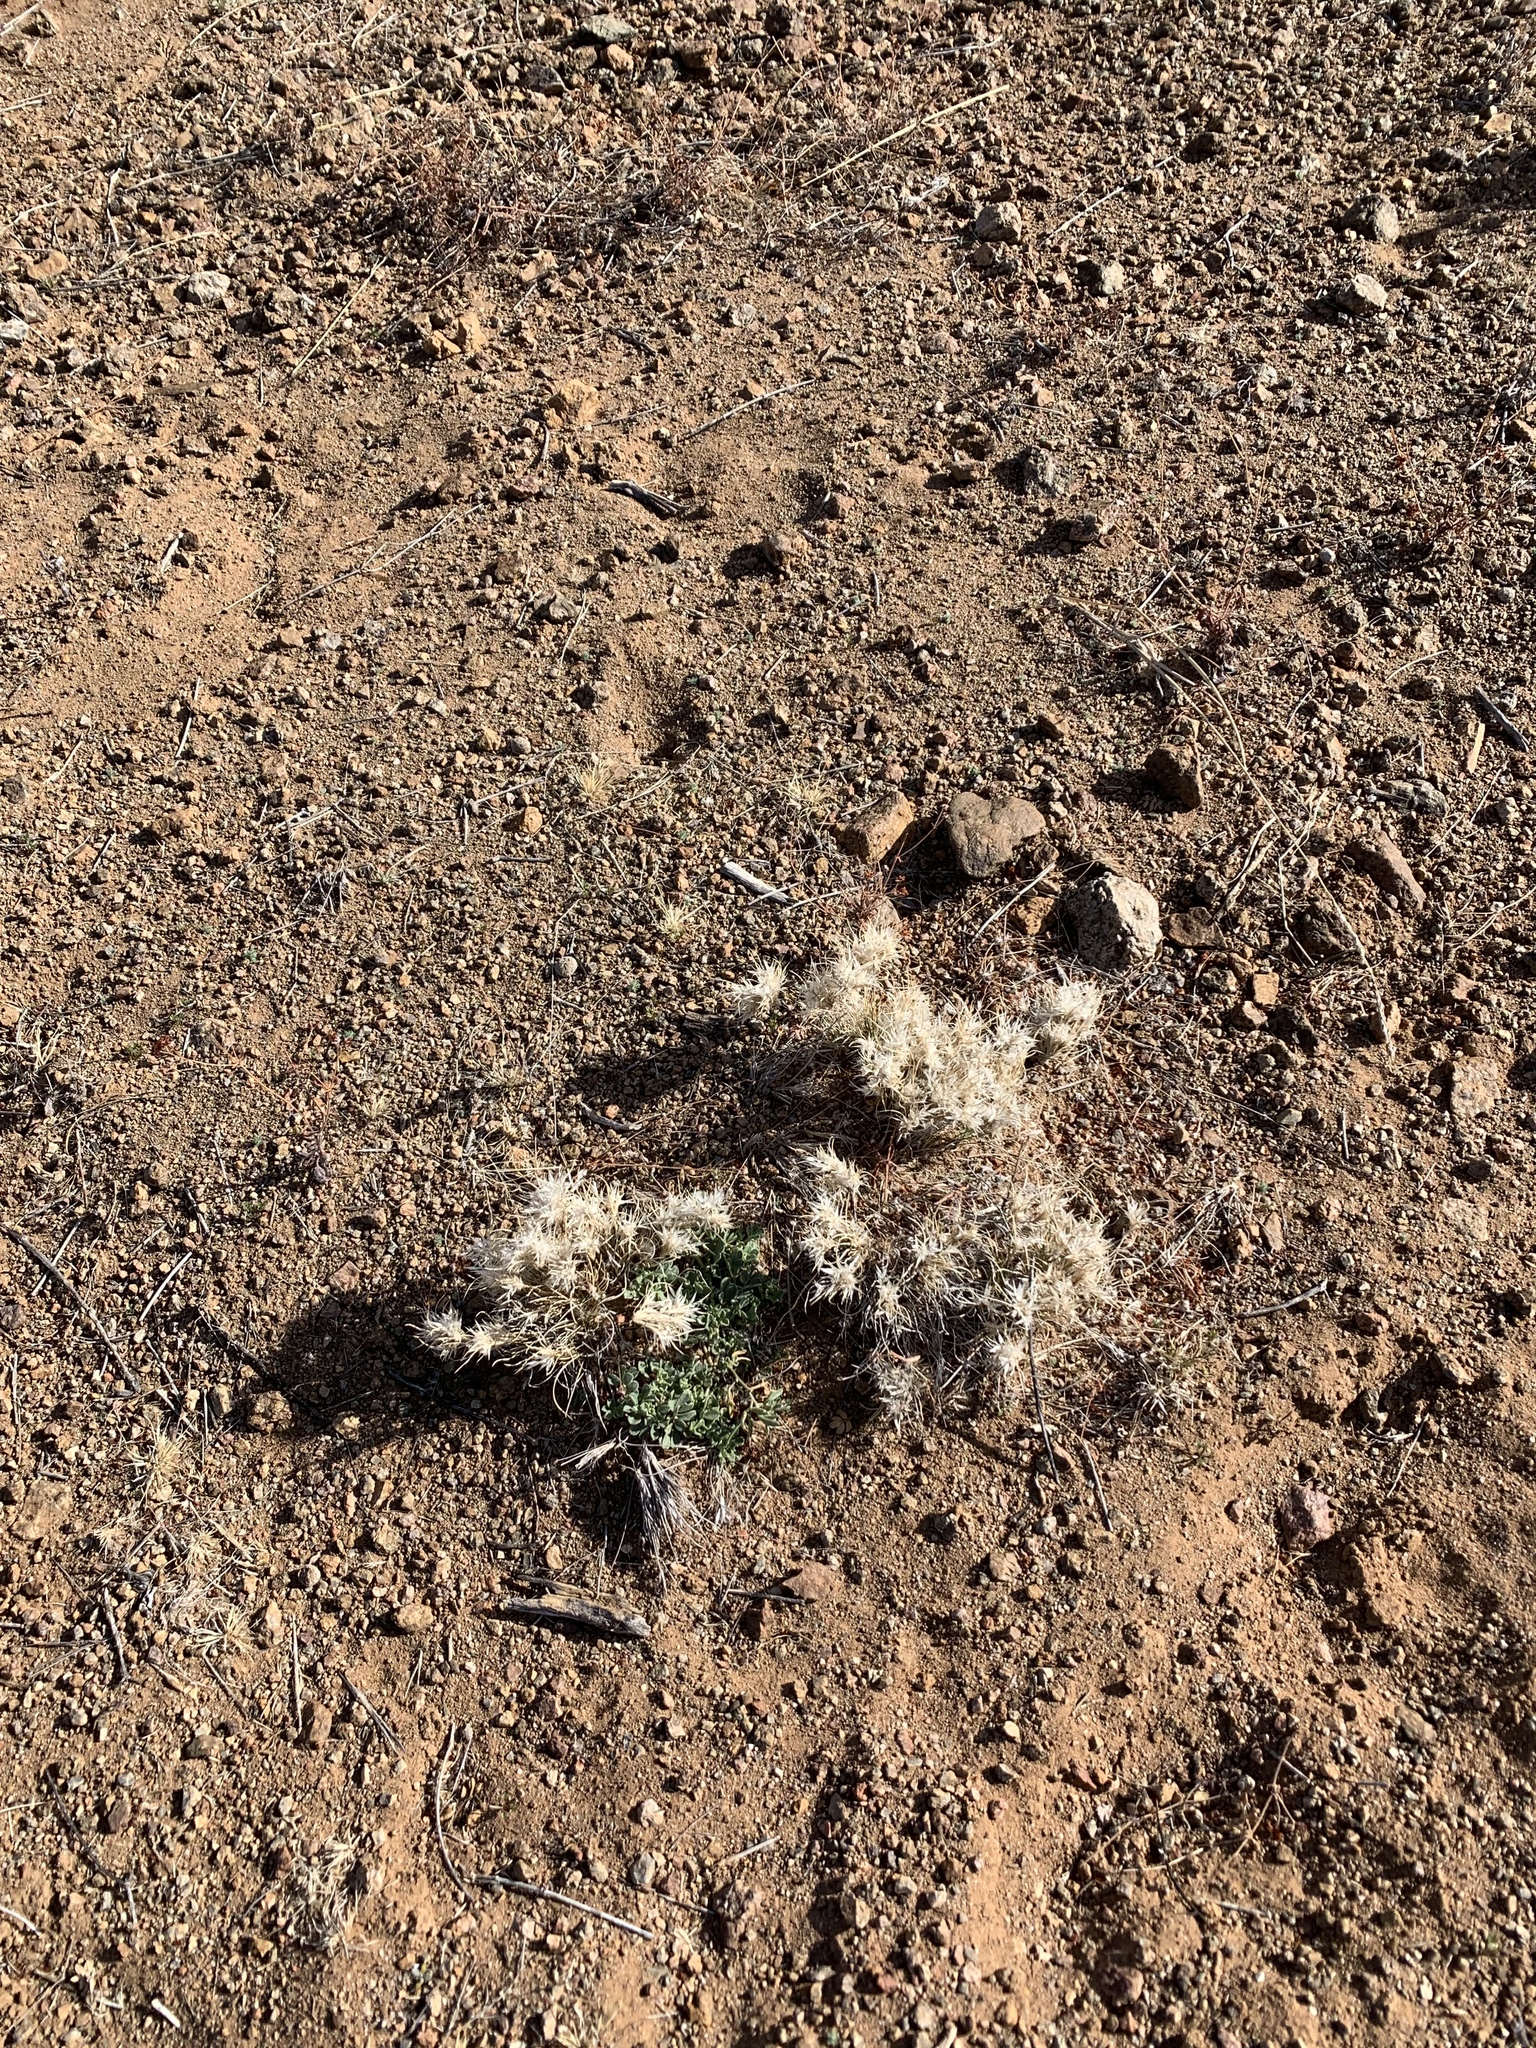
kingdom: Plantae
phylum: Tracheophyta
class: Liliopsida
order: Poales
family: Poaceae
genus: Dasyochloa
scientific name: Dasyochloa pulchella
